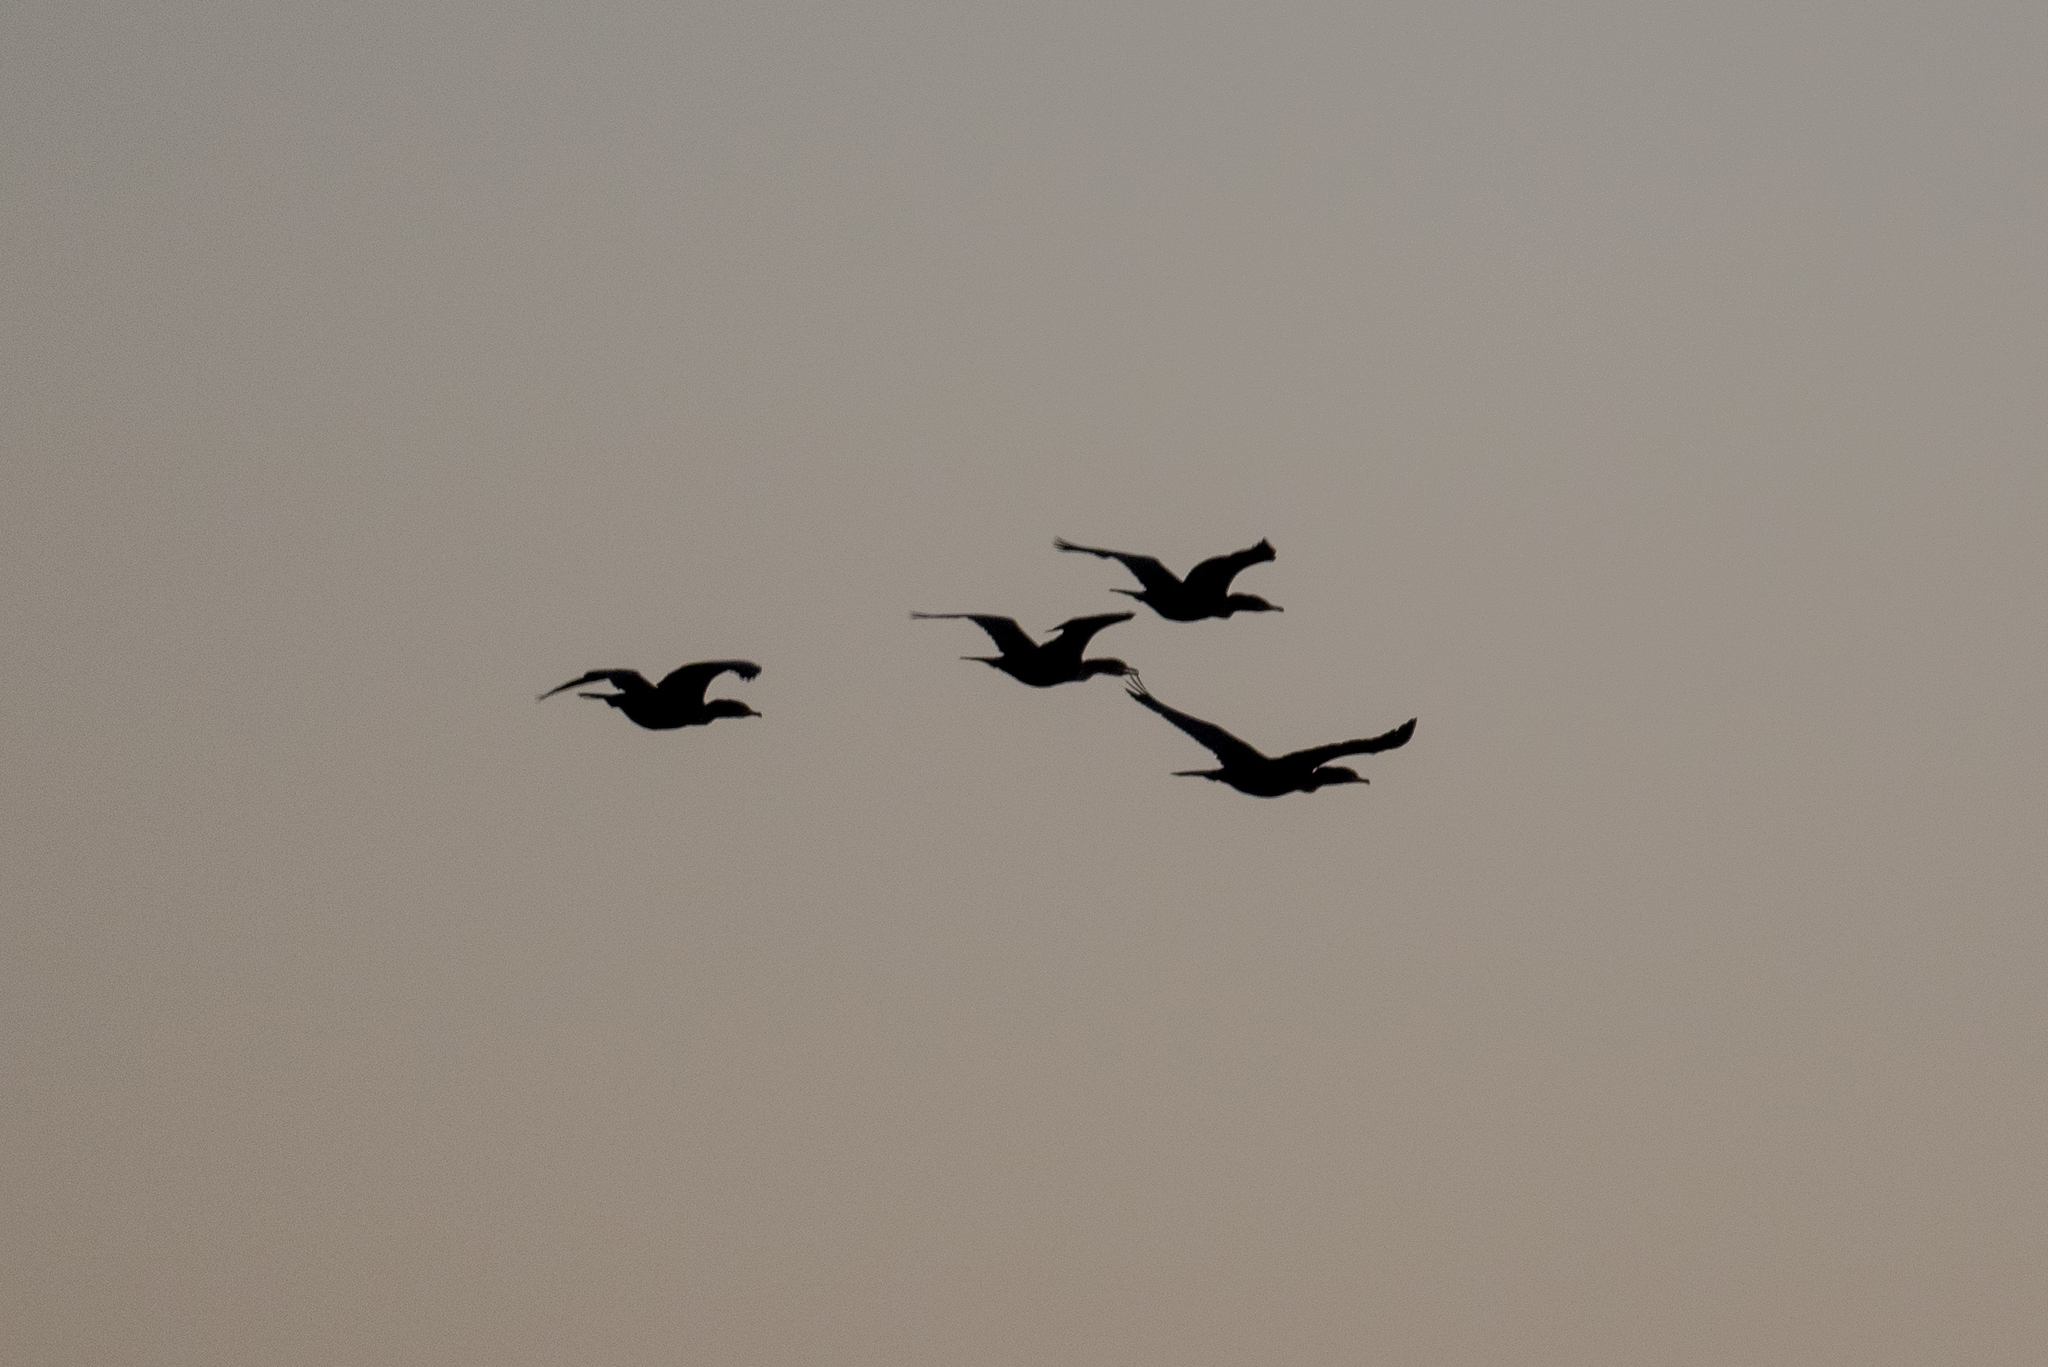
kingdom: Animalia
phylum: Chordata
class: Aves
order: Suliformes
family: Phalacrocoracidae
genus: Phalacrocorax
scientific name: Phalacrocorax auritus
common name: Double-crested cormorant
